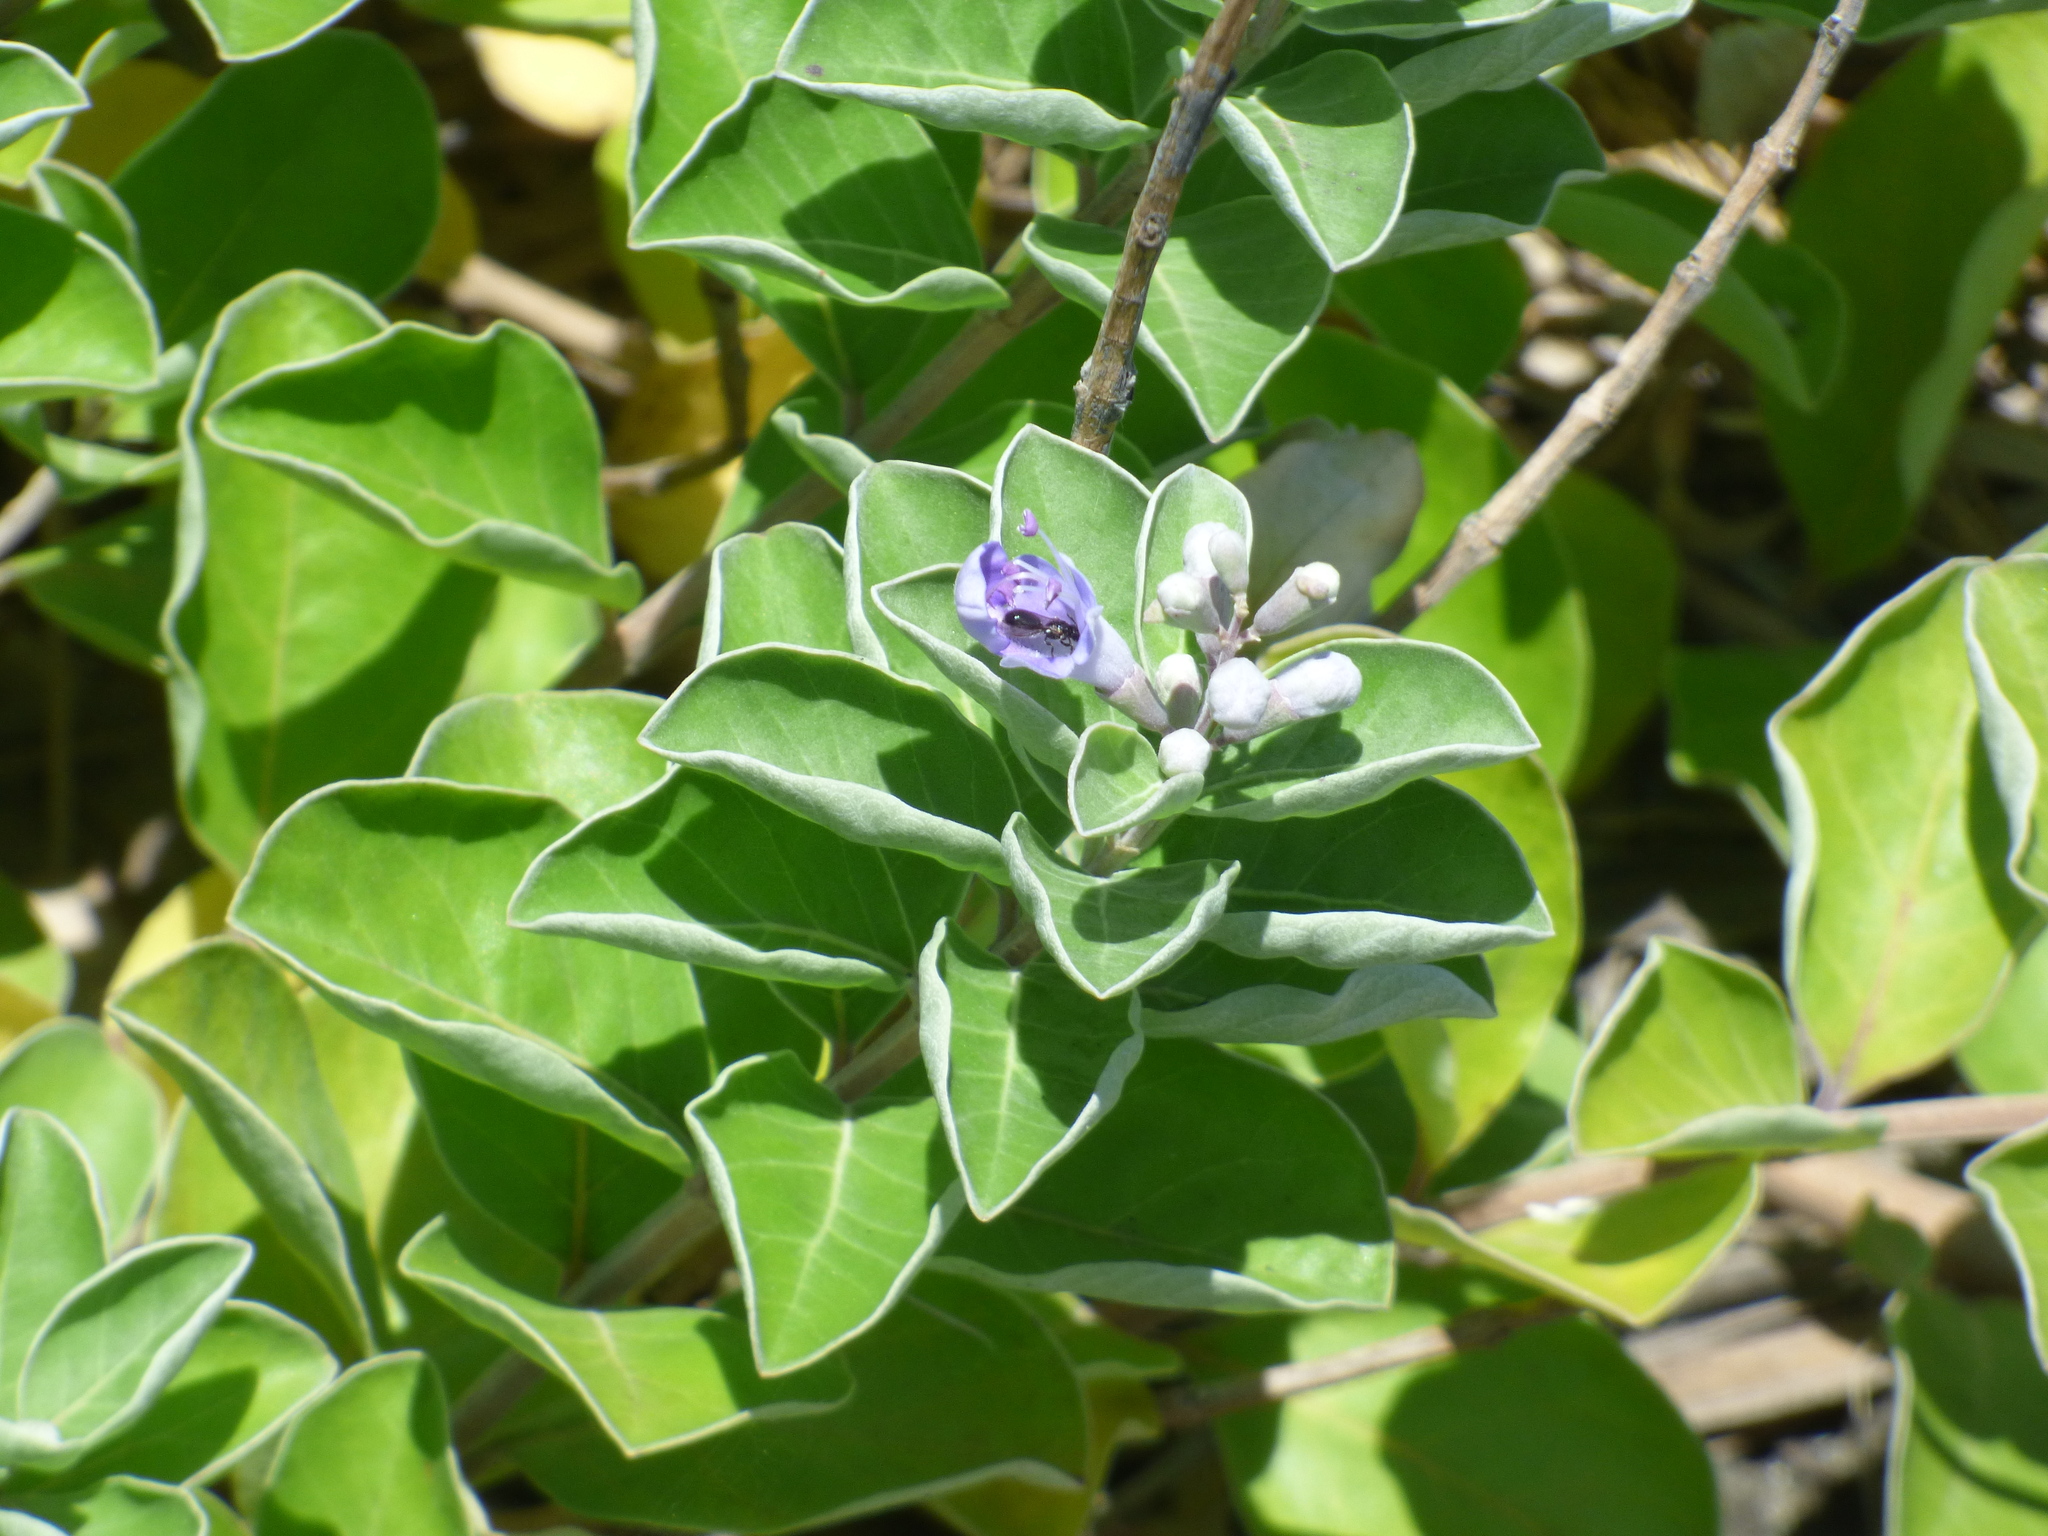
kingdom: Plantae
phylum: Tracheophyta
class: Magnoliopsida
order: Lamiales
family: Lamiaceae
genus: Vitex
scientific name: Vitex rotundifolia
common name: Beach vitex
